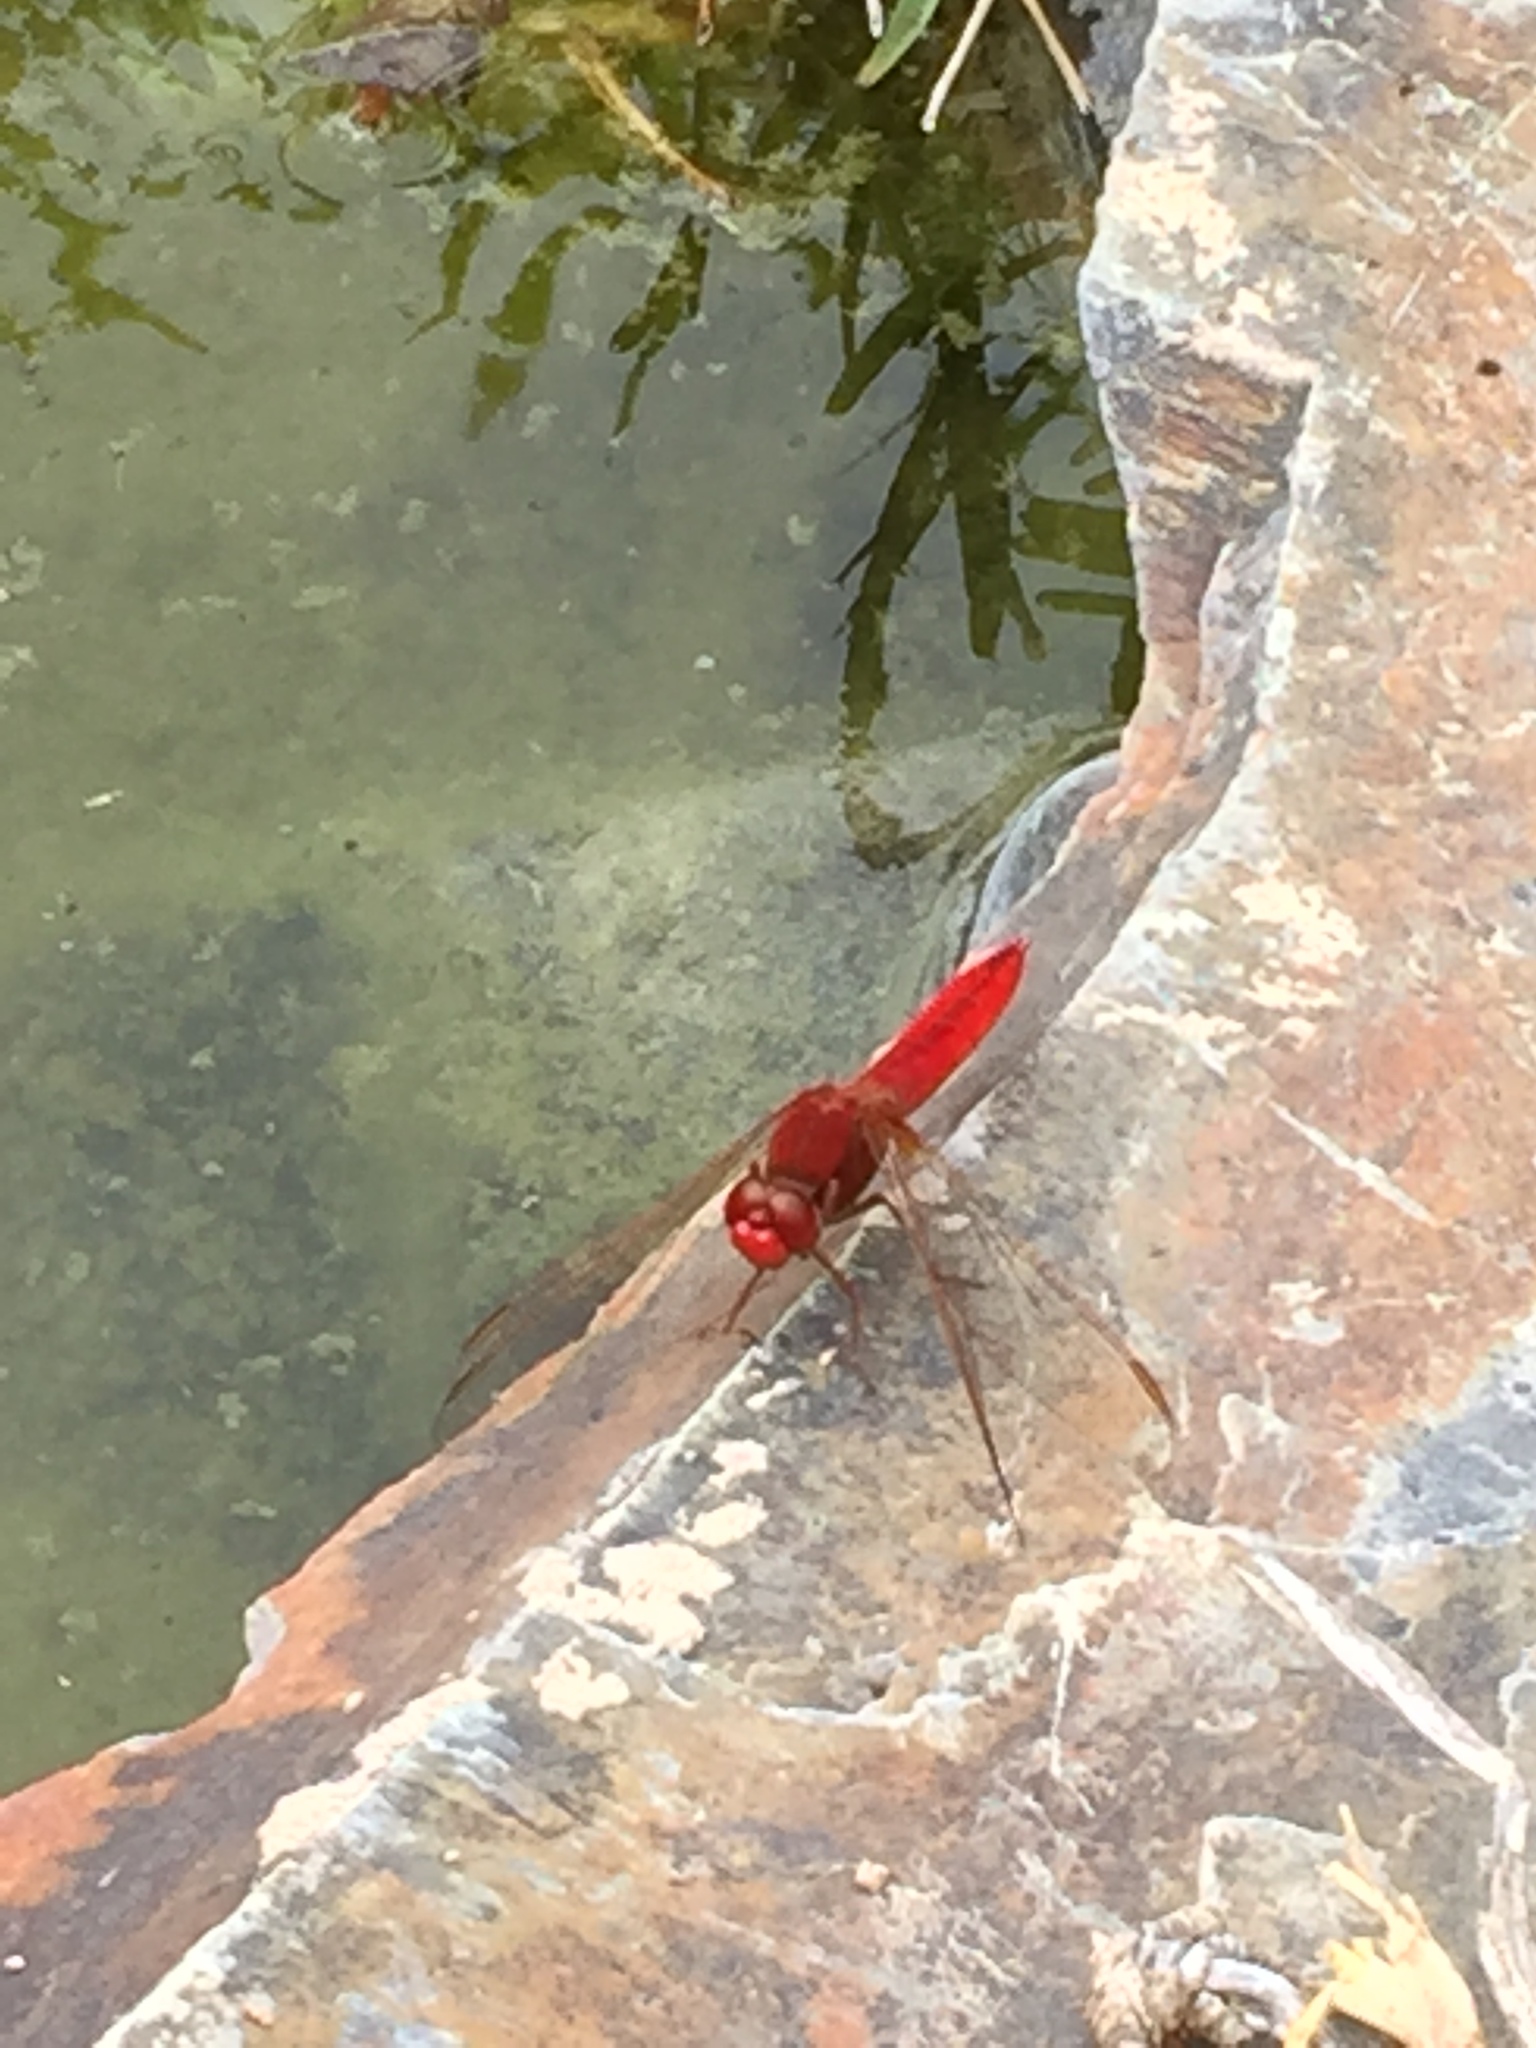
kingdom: Animalia
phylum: Arthropoda
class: Insecta
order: Odonata
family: Libellulidae
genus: Crocothemis
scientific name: Crocothemis erythraea
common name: Scarlet dragonfly
